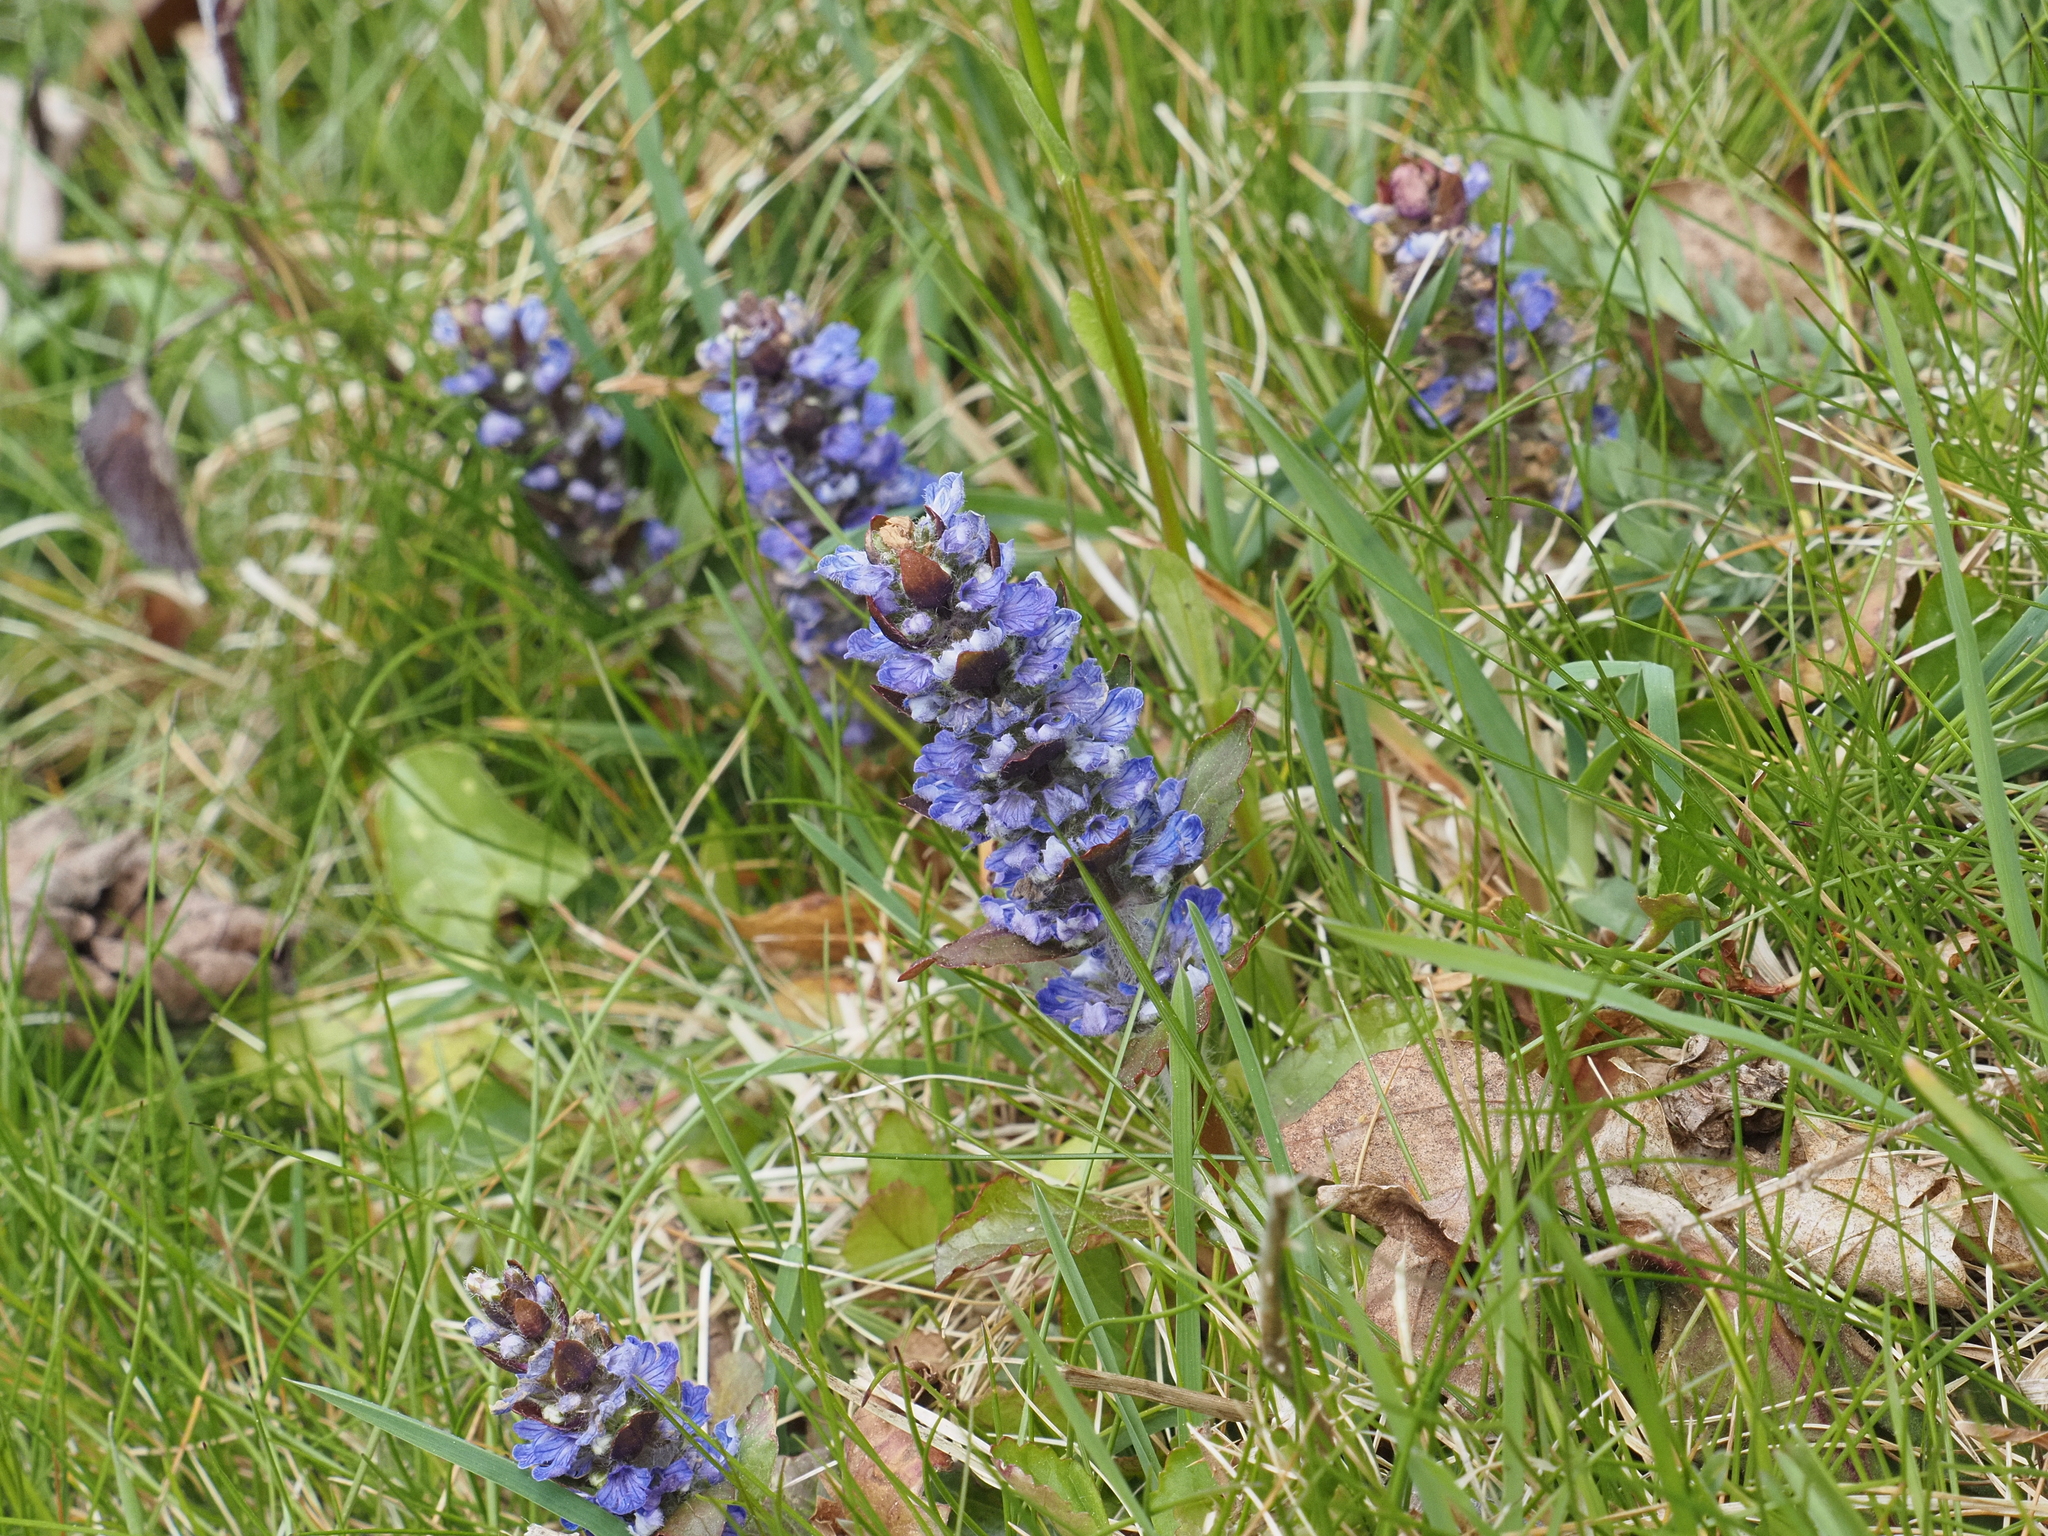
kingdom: Plantae
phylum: Tracheophyta
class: Magnoliopsida
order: Lamiales
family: Lamiaceae
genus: Ajuga
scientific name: Ajuga reptans
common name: Bugle
